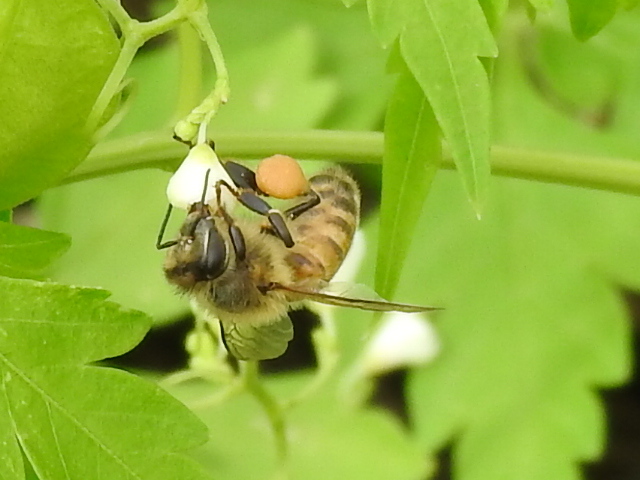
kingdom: Animalia
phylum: Arthropoda
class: Insecta
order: Hymenoptera
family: Apidae
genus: Apis
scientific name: Apis mellifera
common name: Honey bee
